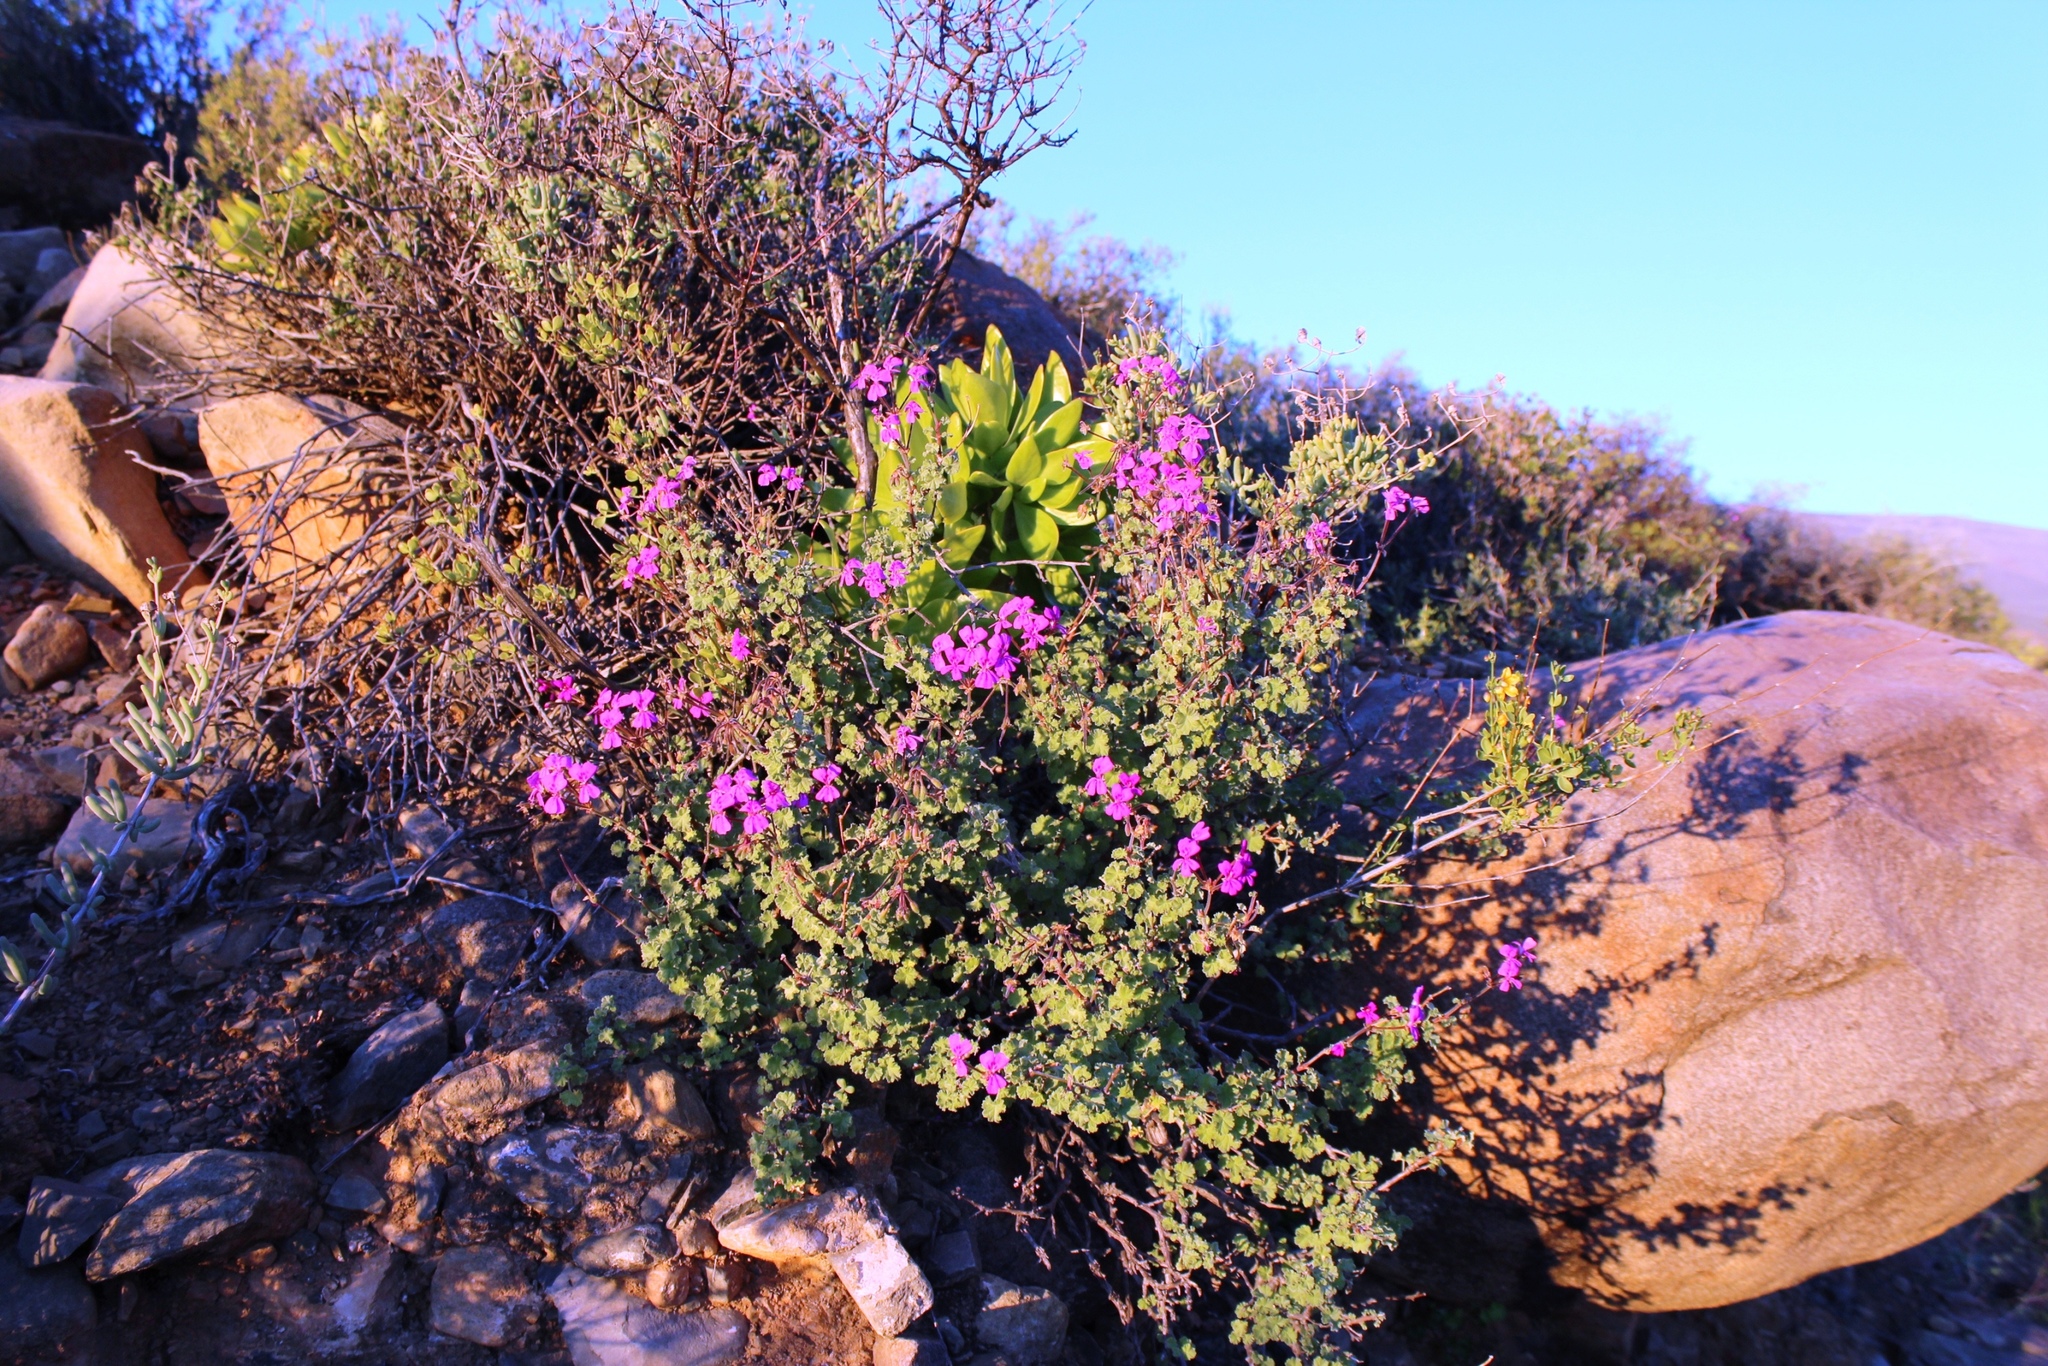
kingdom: Plantae
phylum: Tracheophyta
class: Magnoliopsida
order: Geraniales
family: Geraniaceae
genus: Pelargonium
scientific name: Pelargonium magenteum
